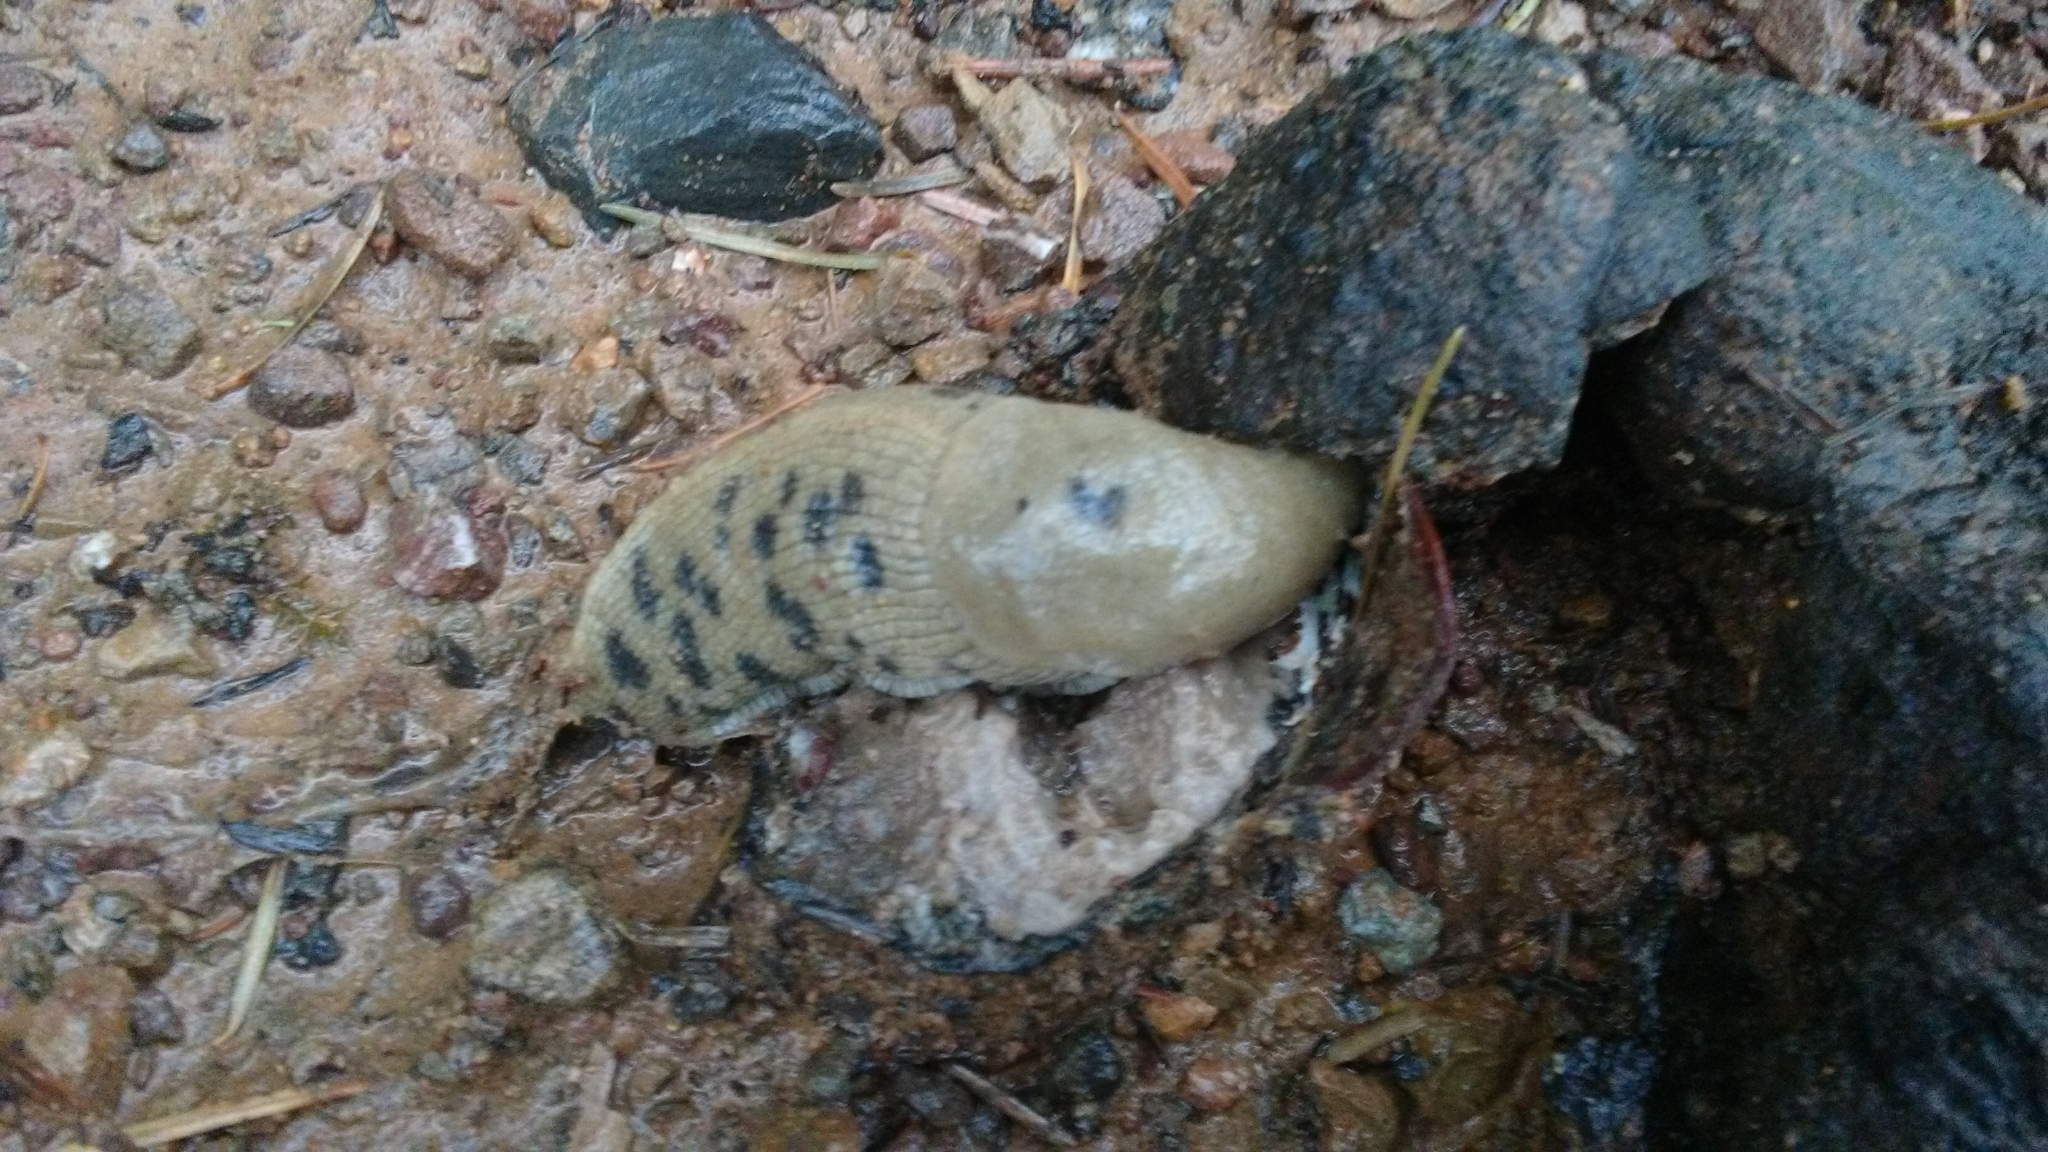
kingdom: Animalia
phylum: Mollusca
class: Gastropoda
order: Stylommatophora
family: Ariolimacidae
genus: Ariolimax
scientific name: Ariolimax buttoni
